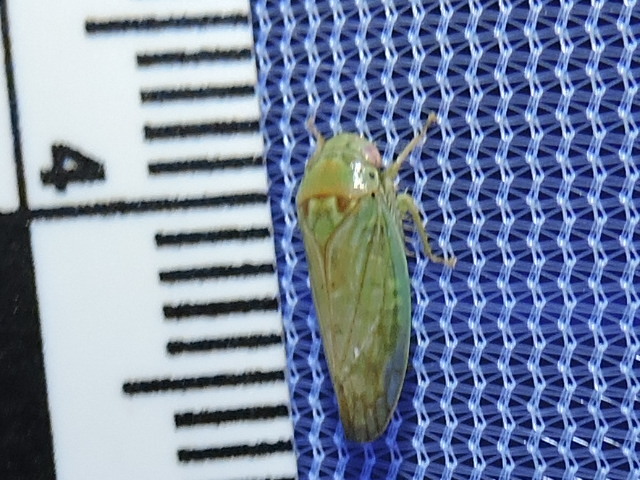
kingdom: Animalia
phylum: Arthropoda
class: Insecta
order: Hemiptera
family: Cicadellidae
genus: Polana
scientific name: Polana quadrinotata
